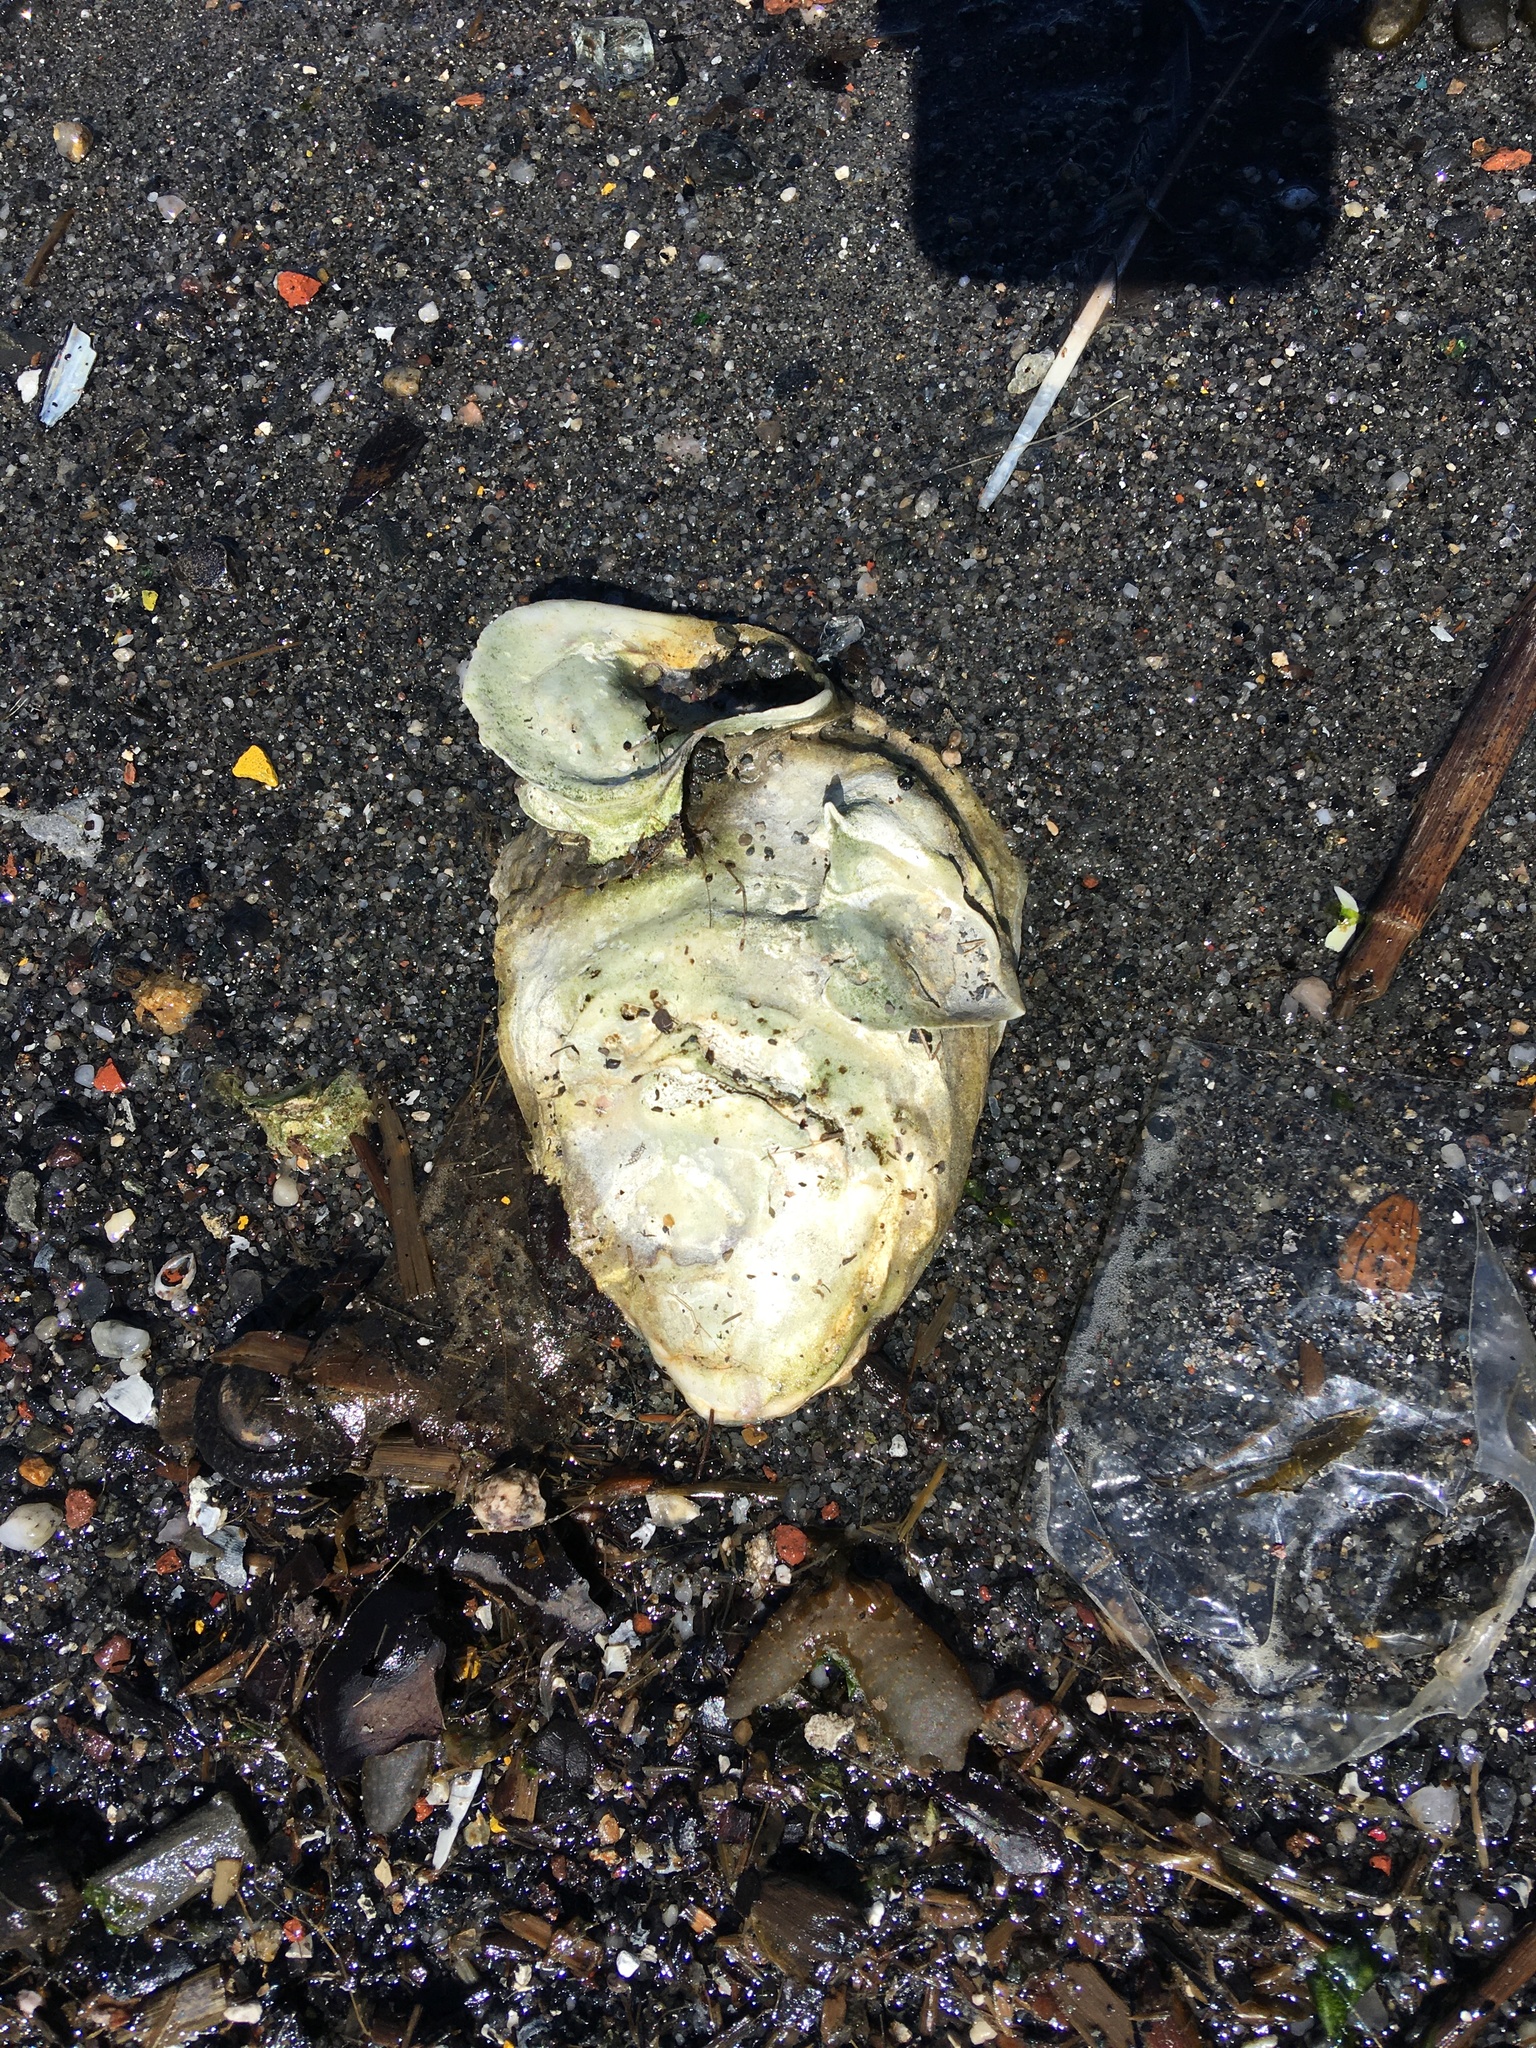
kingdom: Animalia
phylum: Mollusca
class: Bivalvia
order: Ostreida
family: Ostreidae
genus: Crassostrea
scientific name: Crassostrea virginica
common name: American oyster
